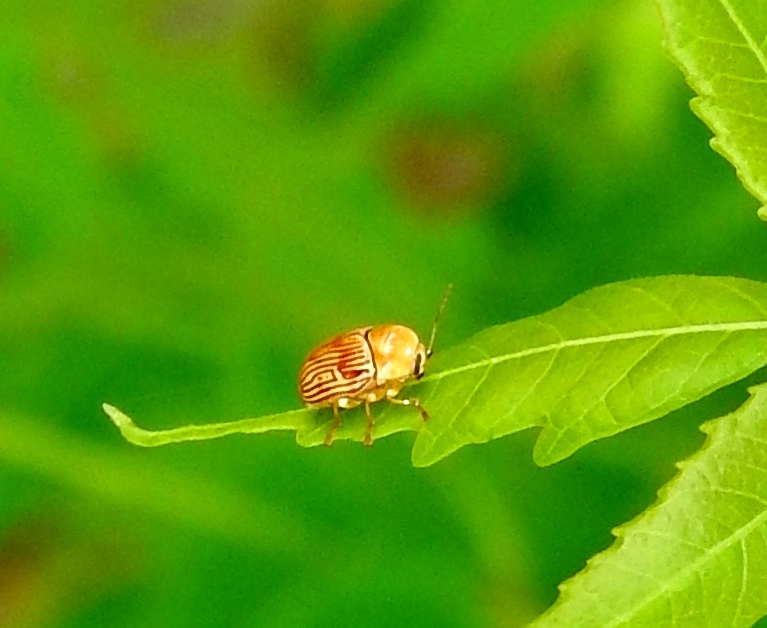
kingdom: Animalia
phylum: Arthropoda
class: Insecta
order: Coleoptera
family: Chrysomelidae
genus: Cryptocephalus
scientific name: Cryptocephalus
